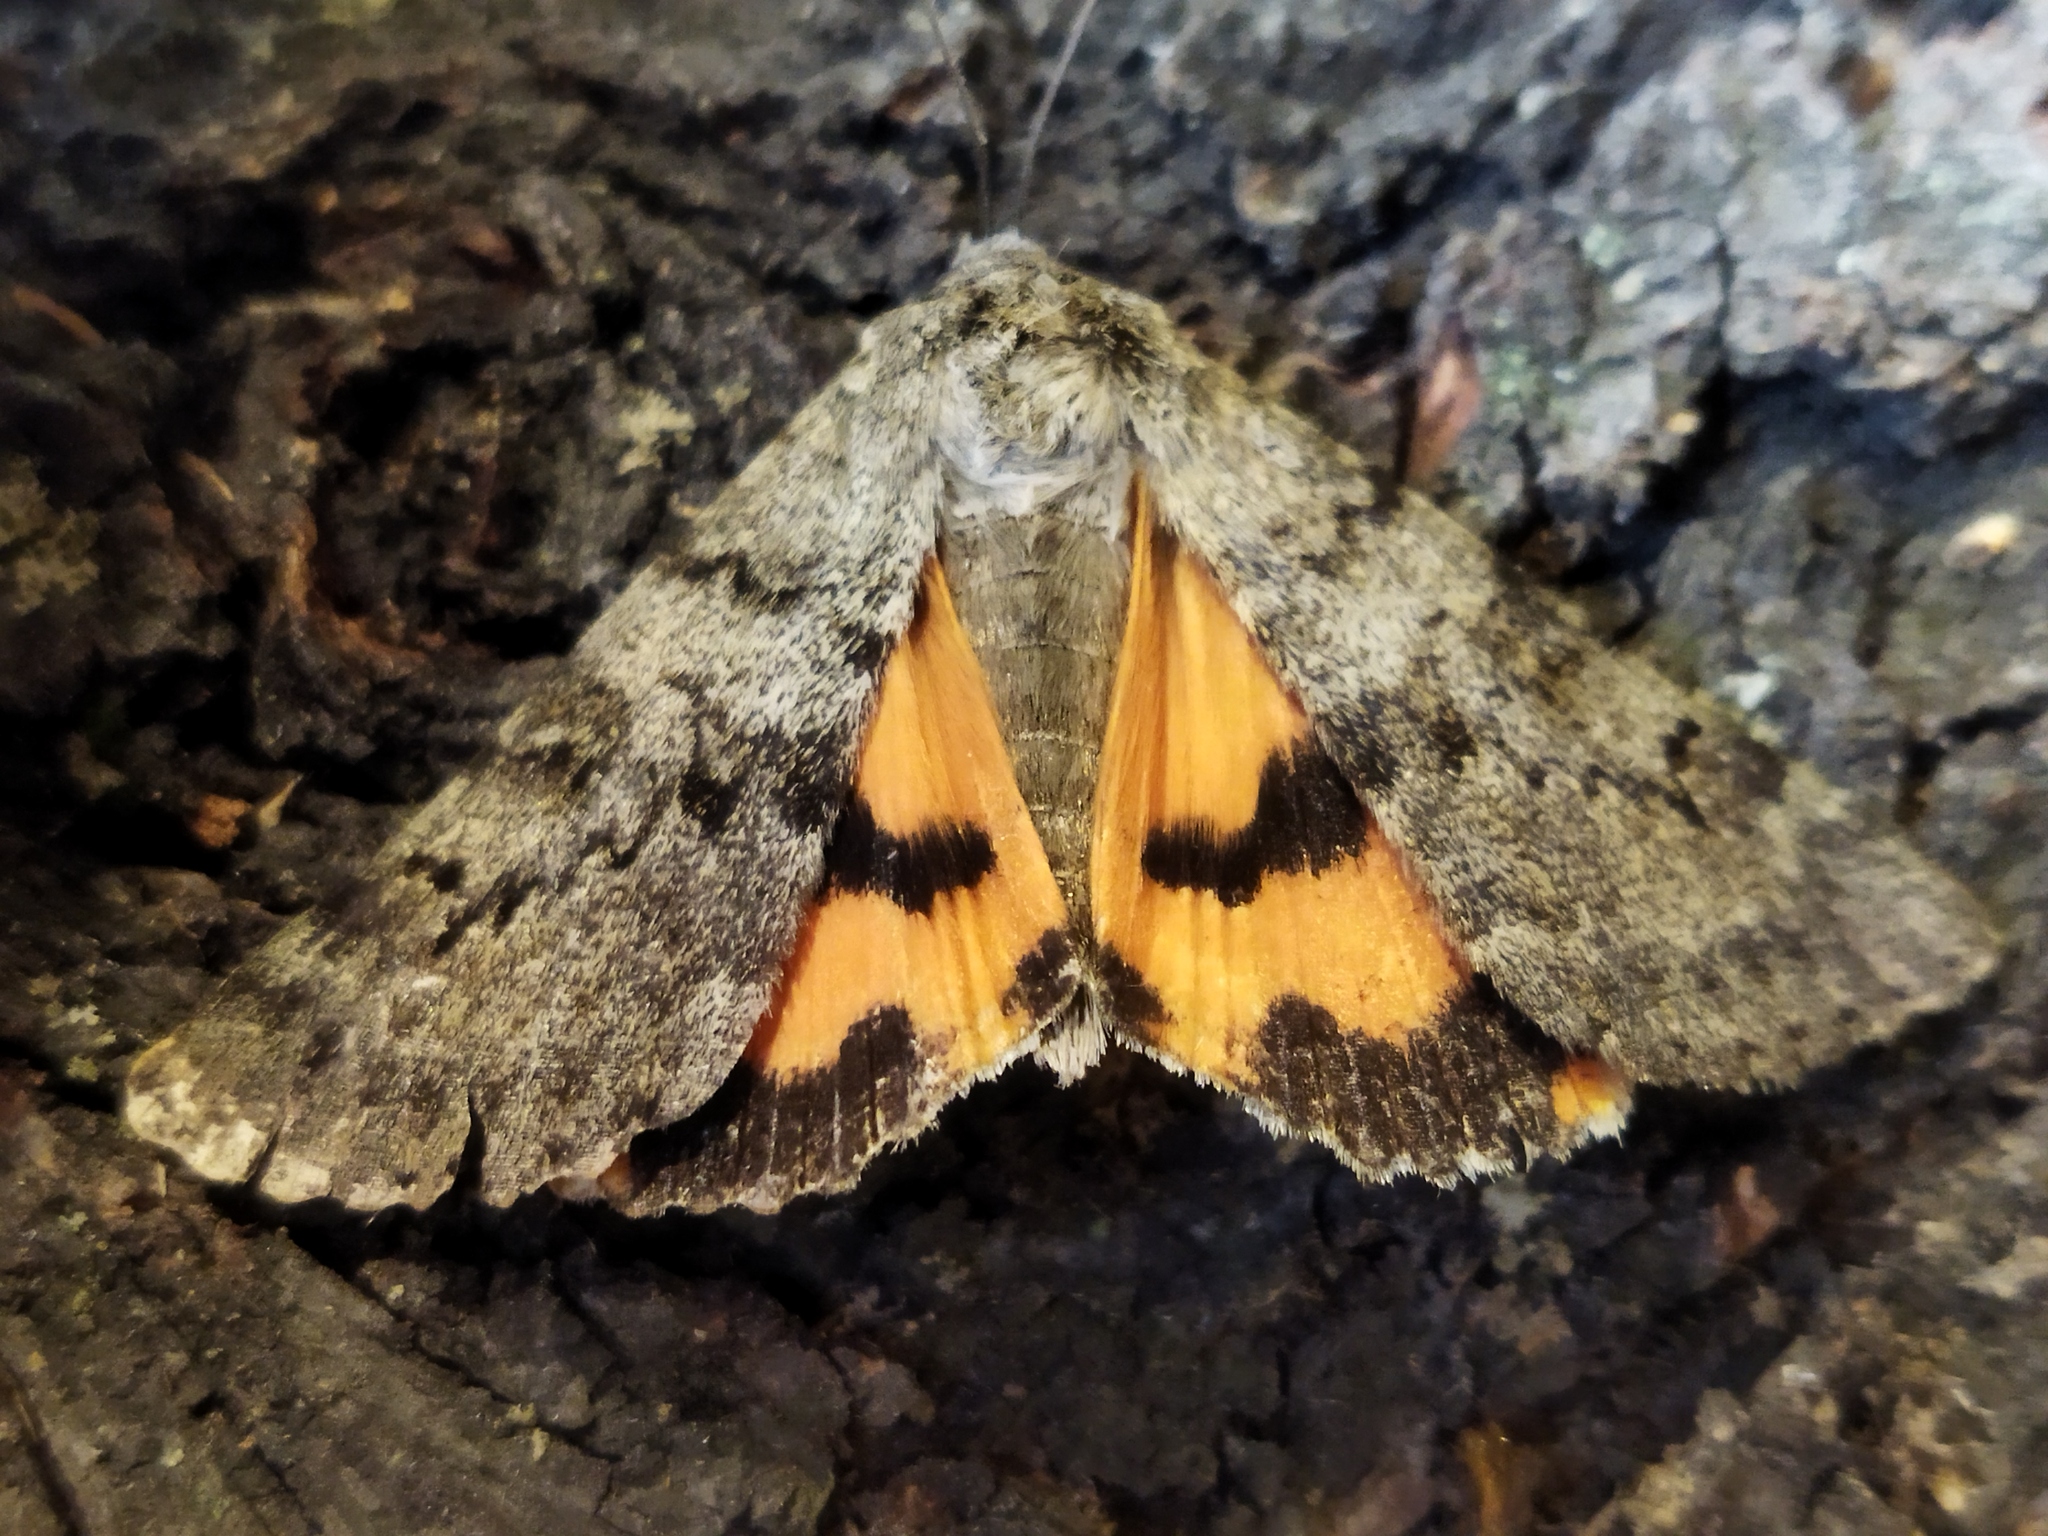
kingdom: Animalia
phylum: Arthropoda
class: Insecta
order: Lepidoptera
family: Erebidae
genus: Catocala
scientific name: Catocala puerpera
